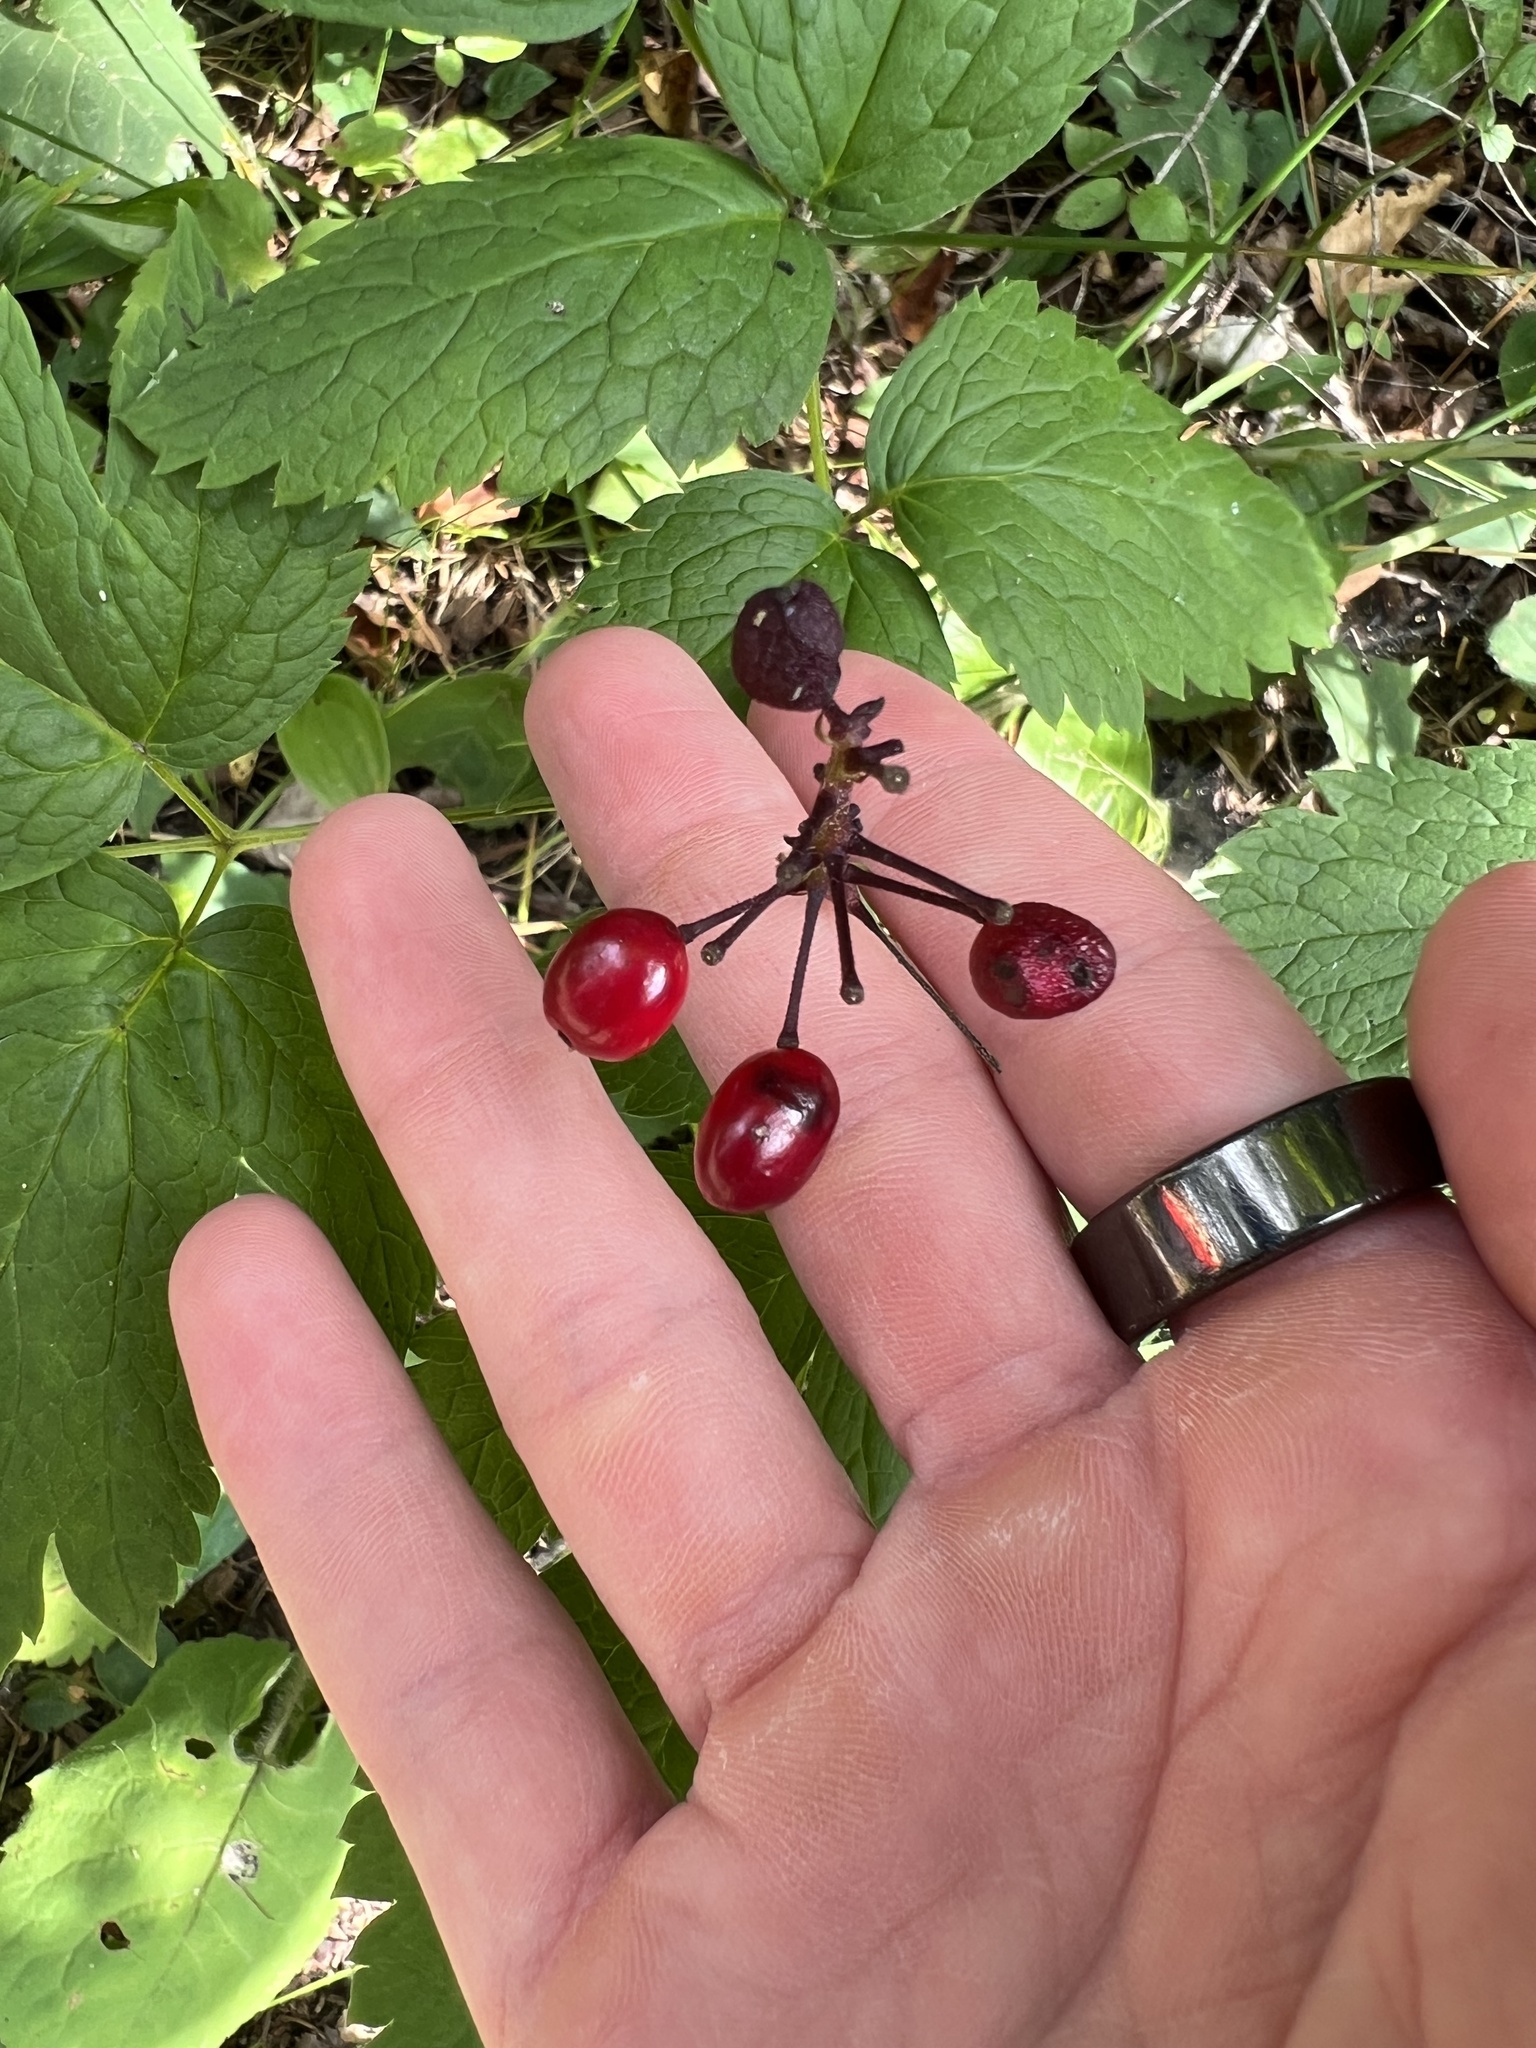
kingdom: Plantae
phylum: Tracheophyta
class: Magnoliopsida
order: Ranunculales
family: Ranunculaceae
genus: Actaea
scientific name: Actaea rubra
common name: Red baneberry
